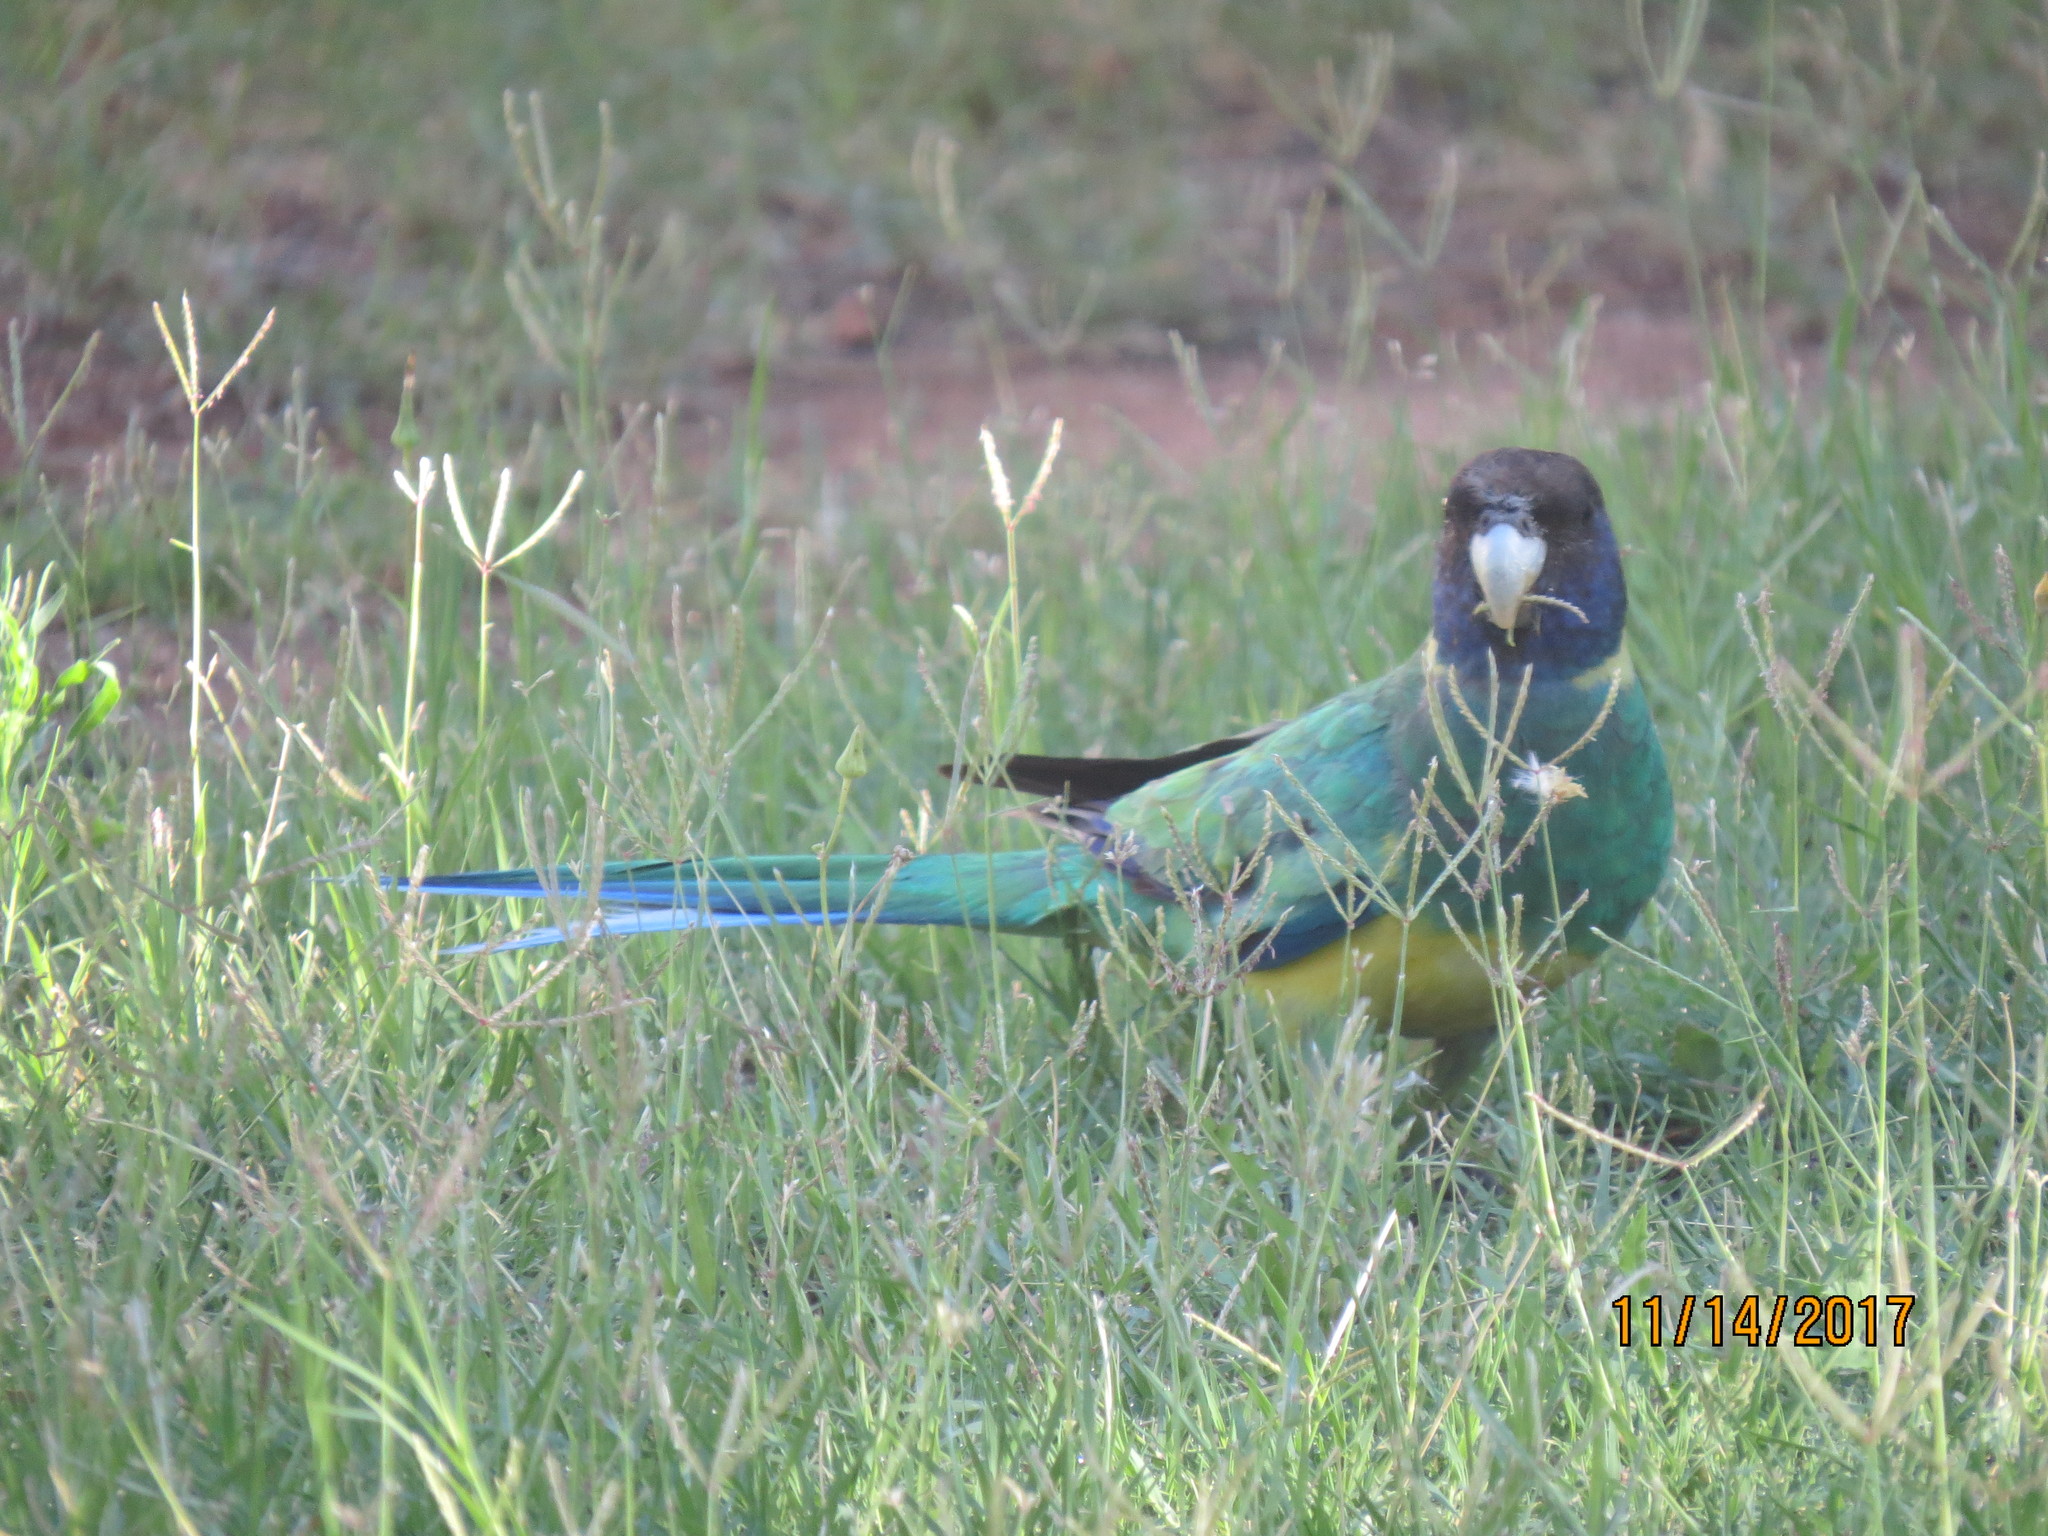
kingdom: Animalia
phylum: Chordata
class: Aves
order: Psittaciformes
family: Psittacidae
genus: Barnardius
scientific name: Barnardius zonarius
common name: Australian ringneck
